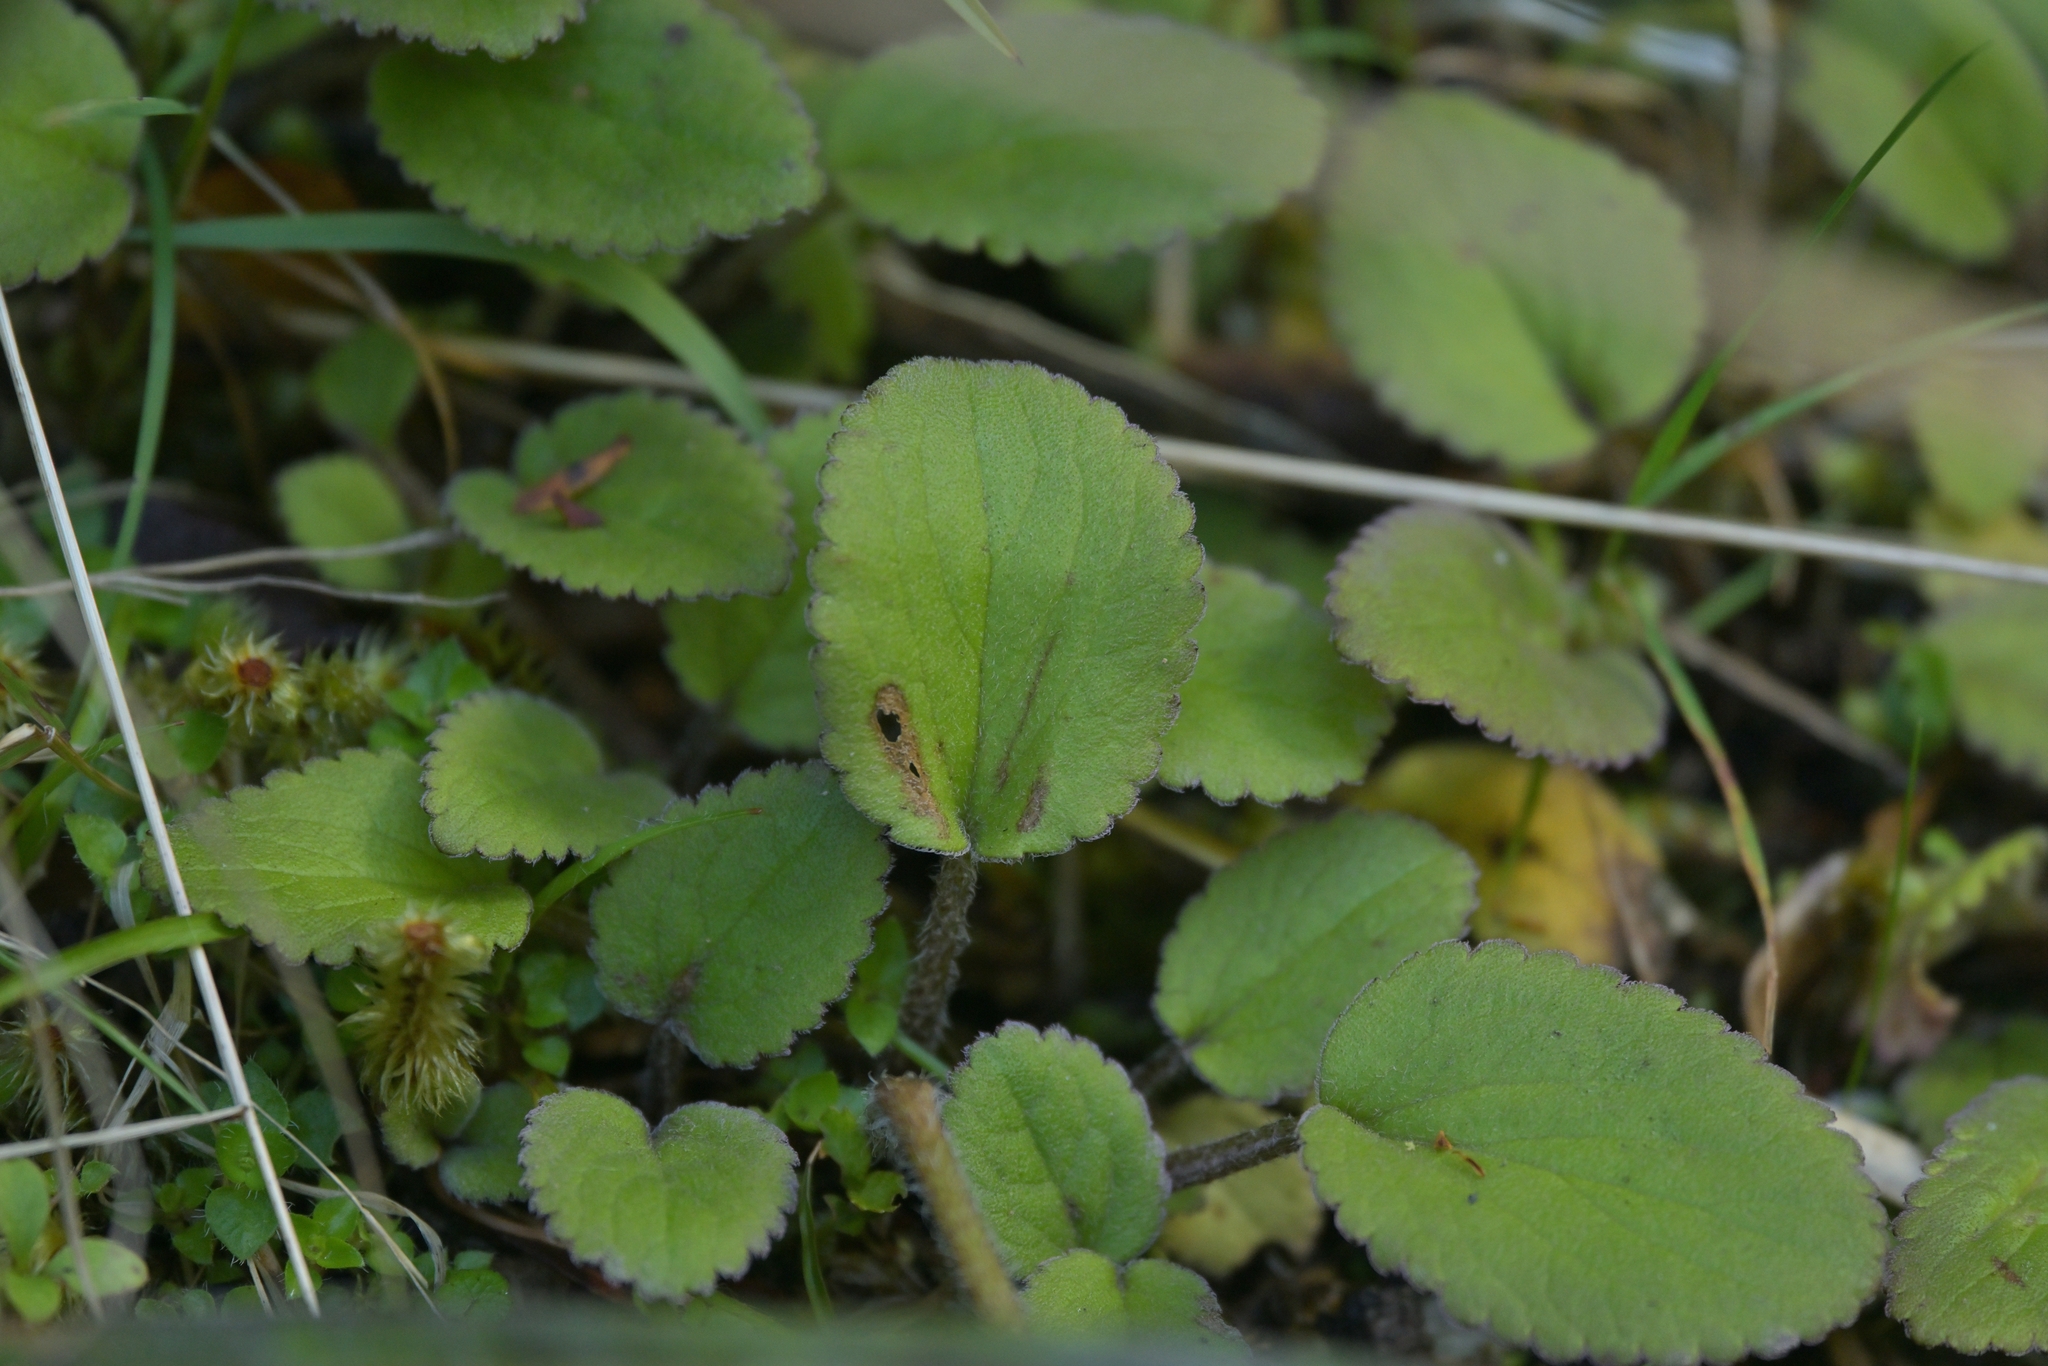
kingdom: Plantae
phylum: Tracheophyta
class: Magnoliopsida
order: Lamiales
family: Plantaginaceae
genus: Ourisia
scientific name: Ourisia macrophylla
